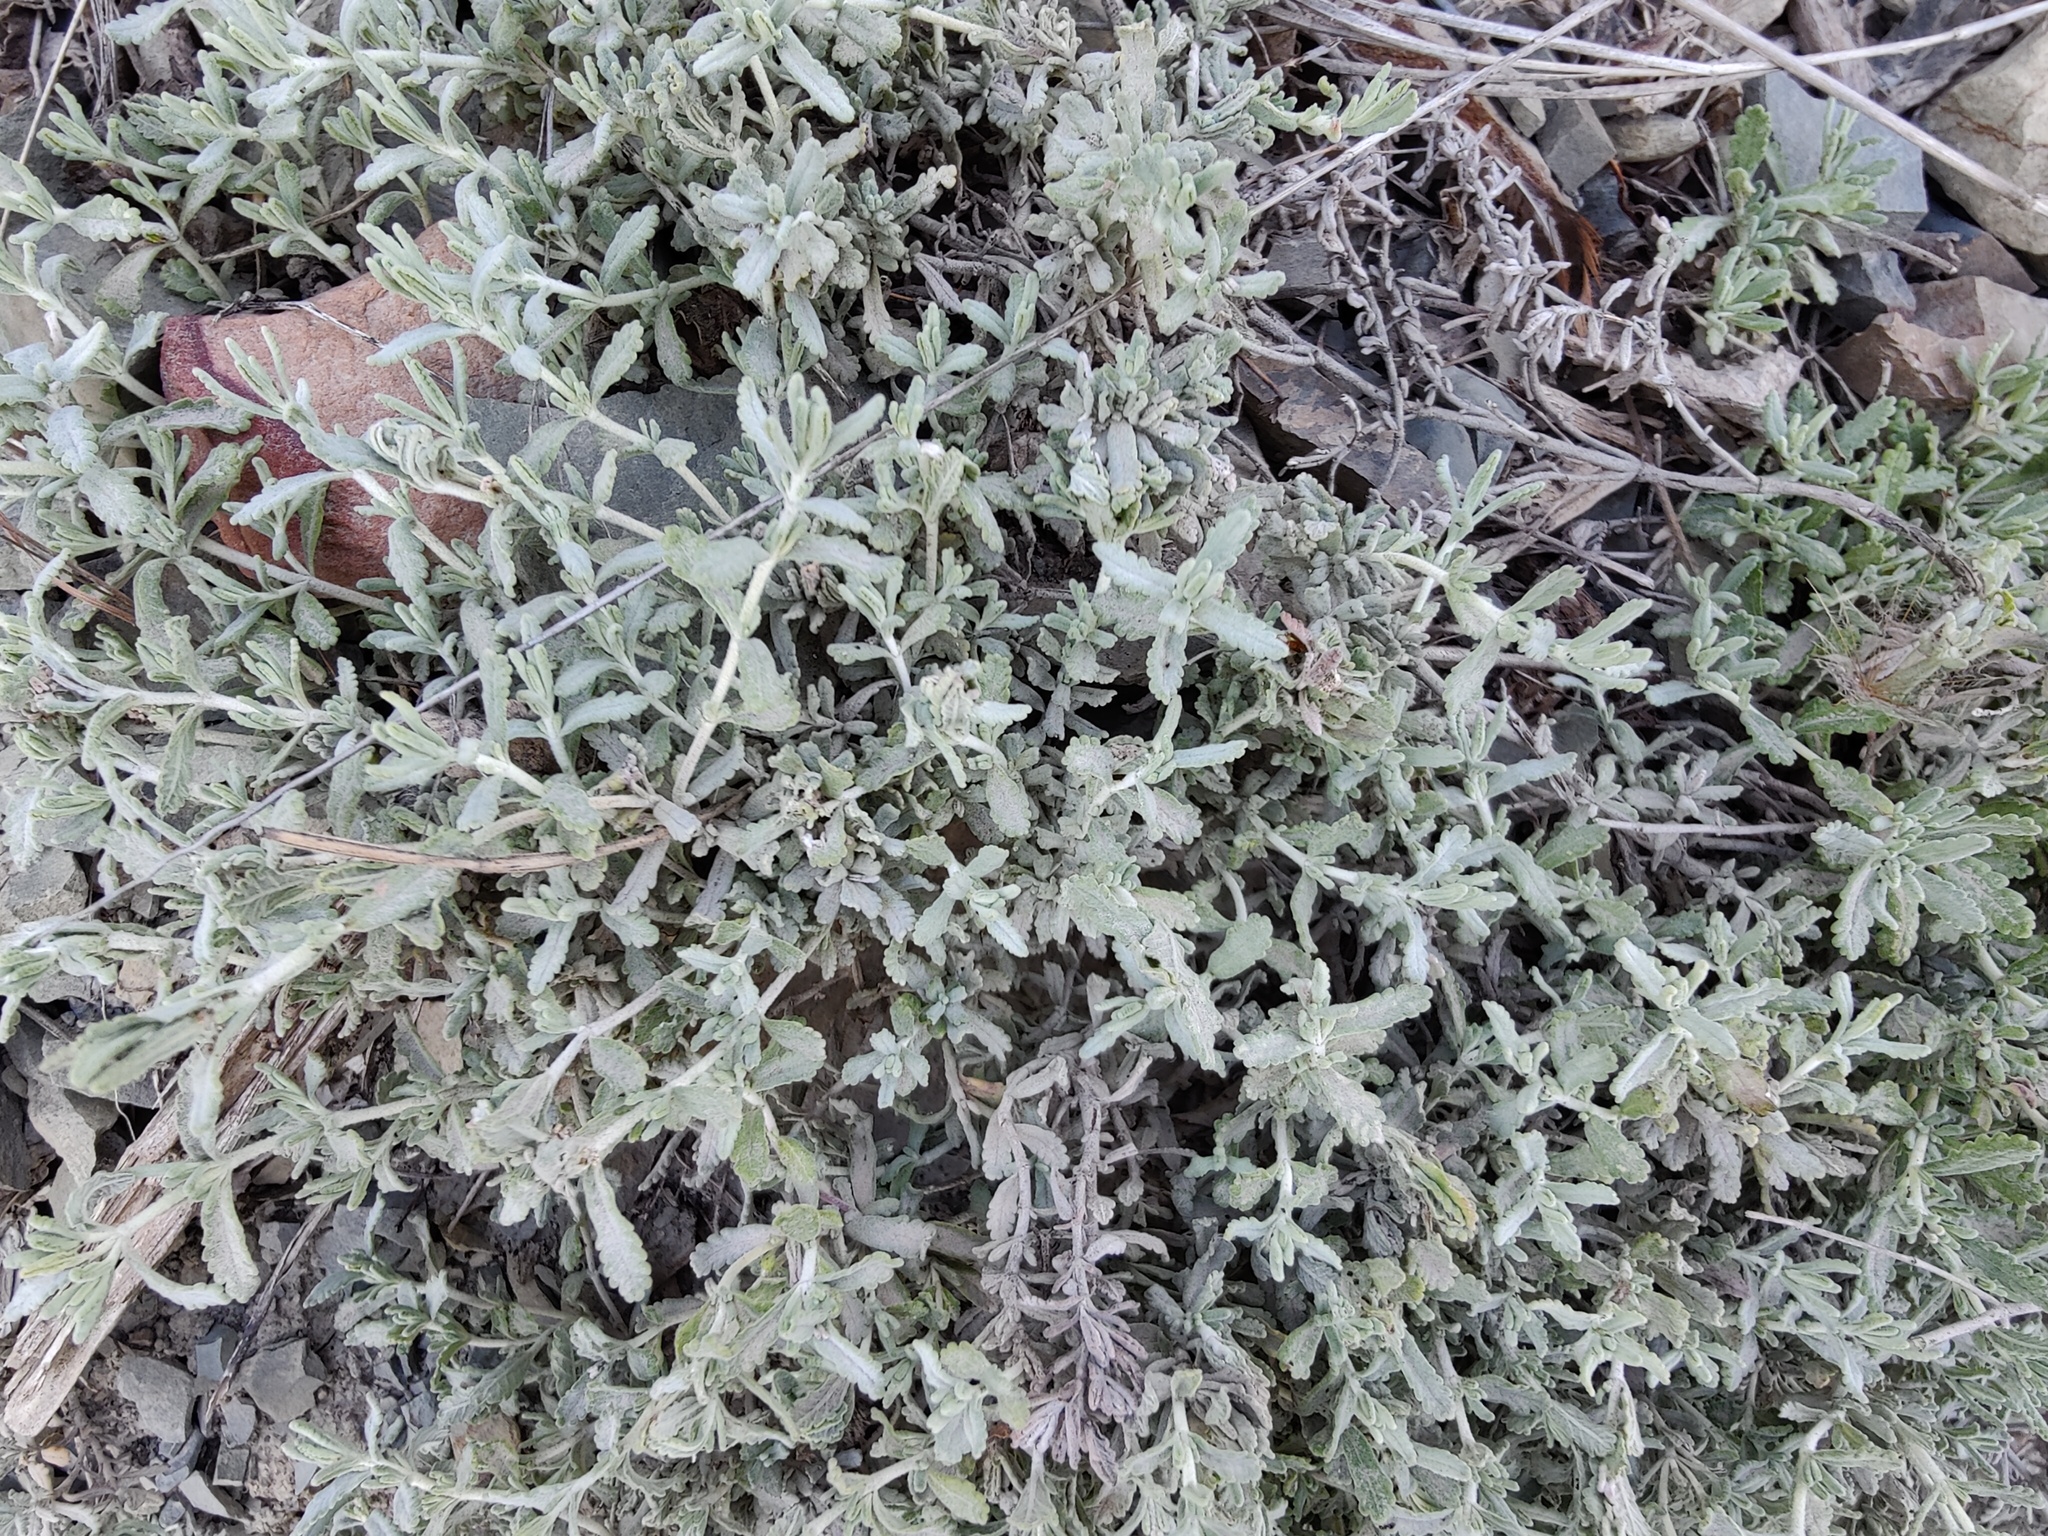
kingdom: Plantae
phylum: Tracheophyta
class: Magnoliopsida
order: Lamiales
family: Lamiaceae
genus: Teucrium
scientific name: Teucrium polium
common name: Poley
